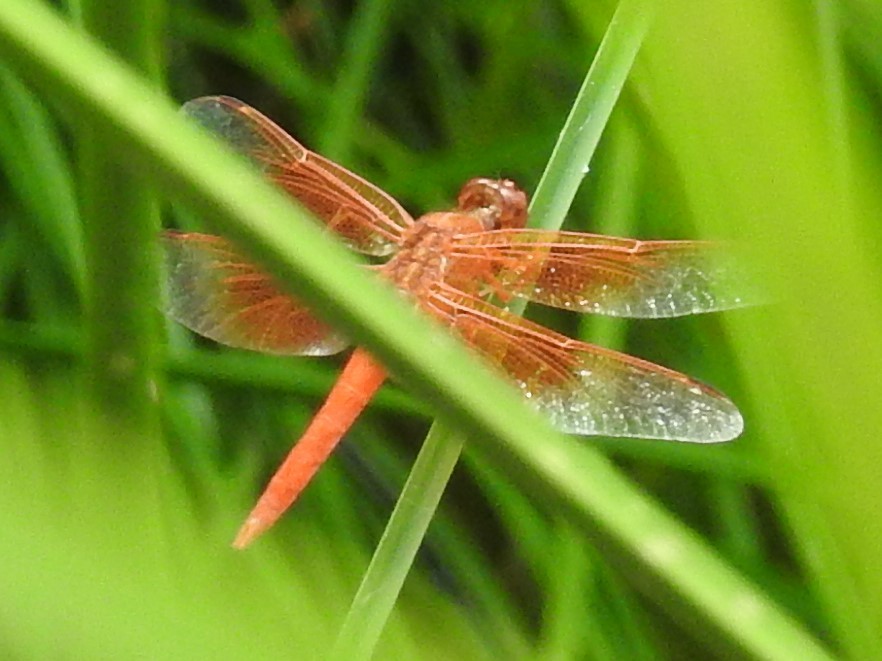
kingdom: Animalia
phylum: Arthropoda
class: Insecta
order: Odonata
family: Libellulidae
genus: Libellula
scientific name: Libellula saturata
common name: Flame skimmer
